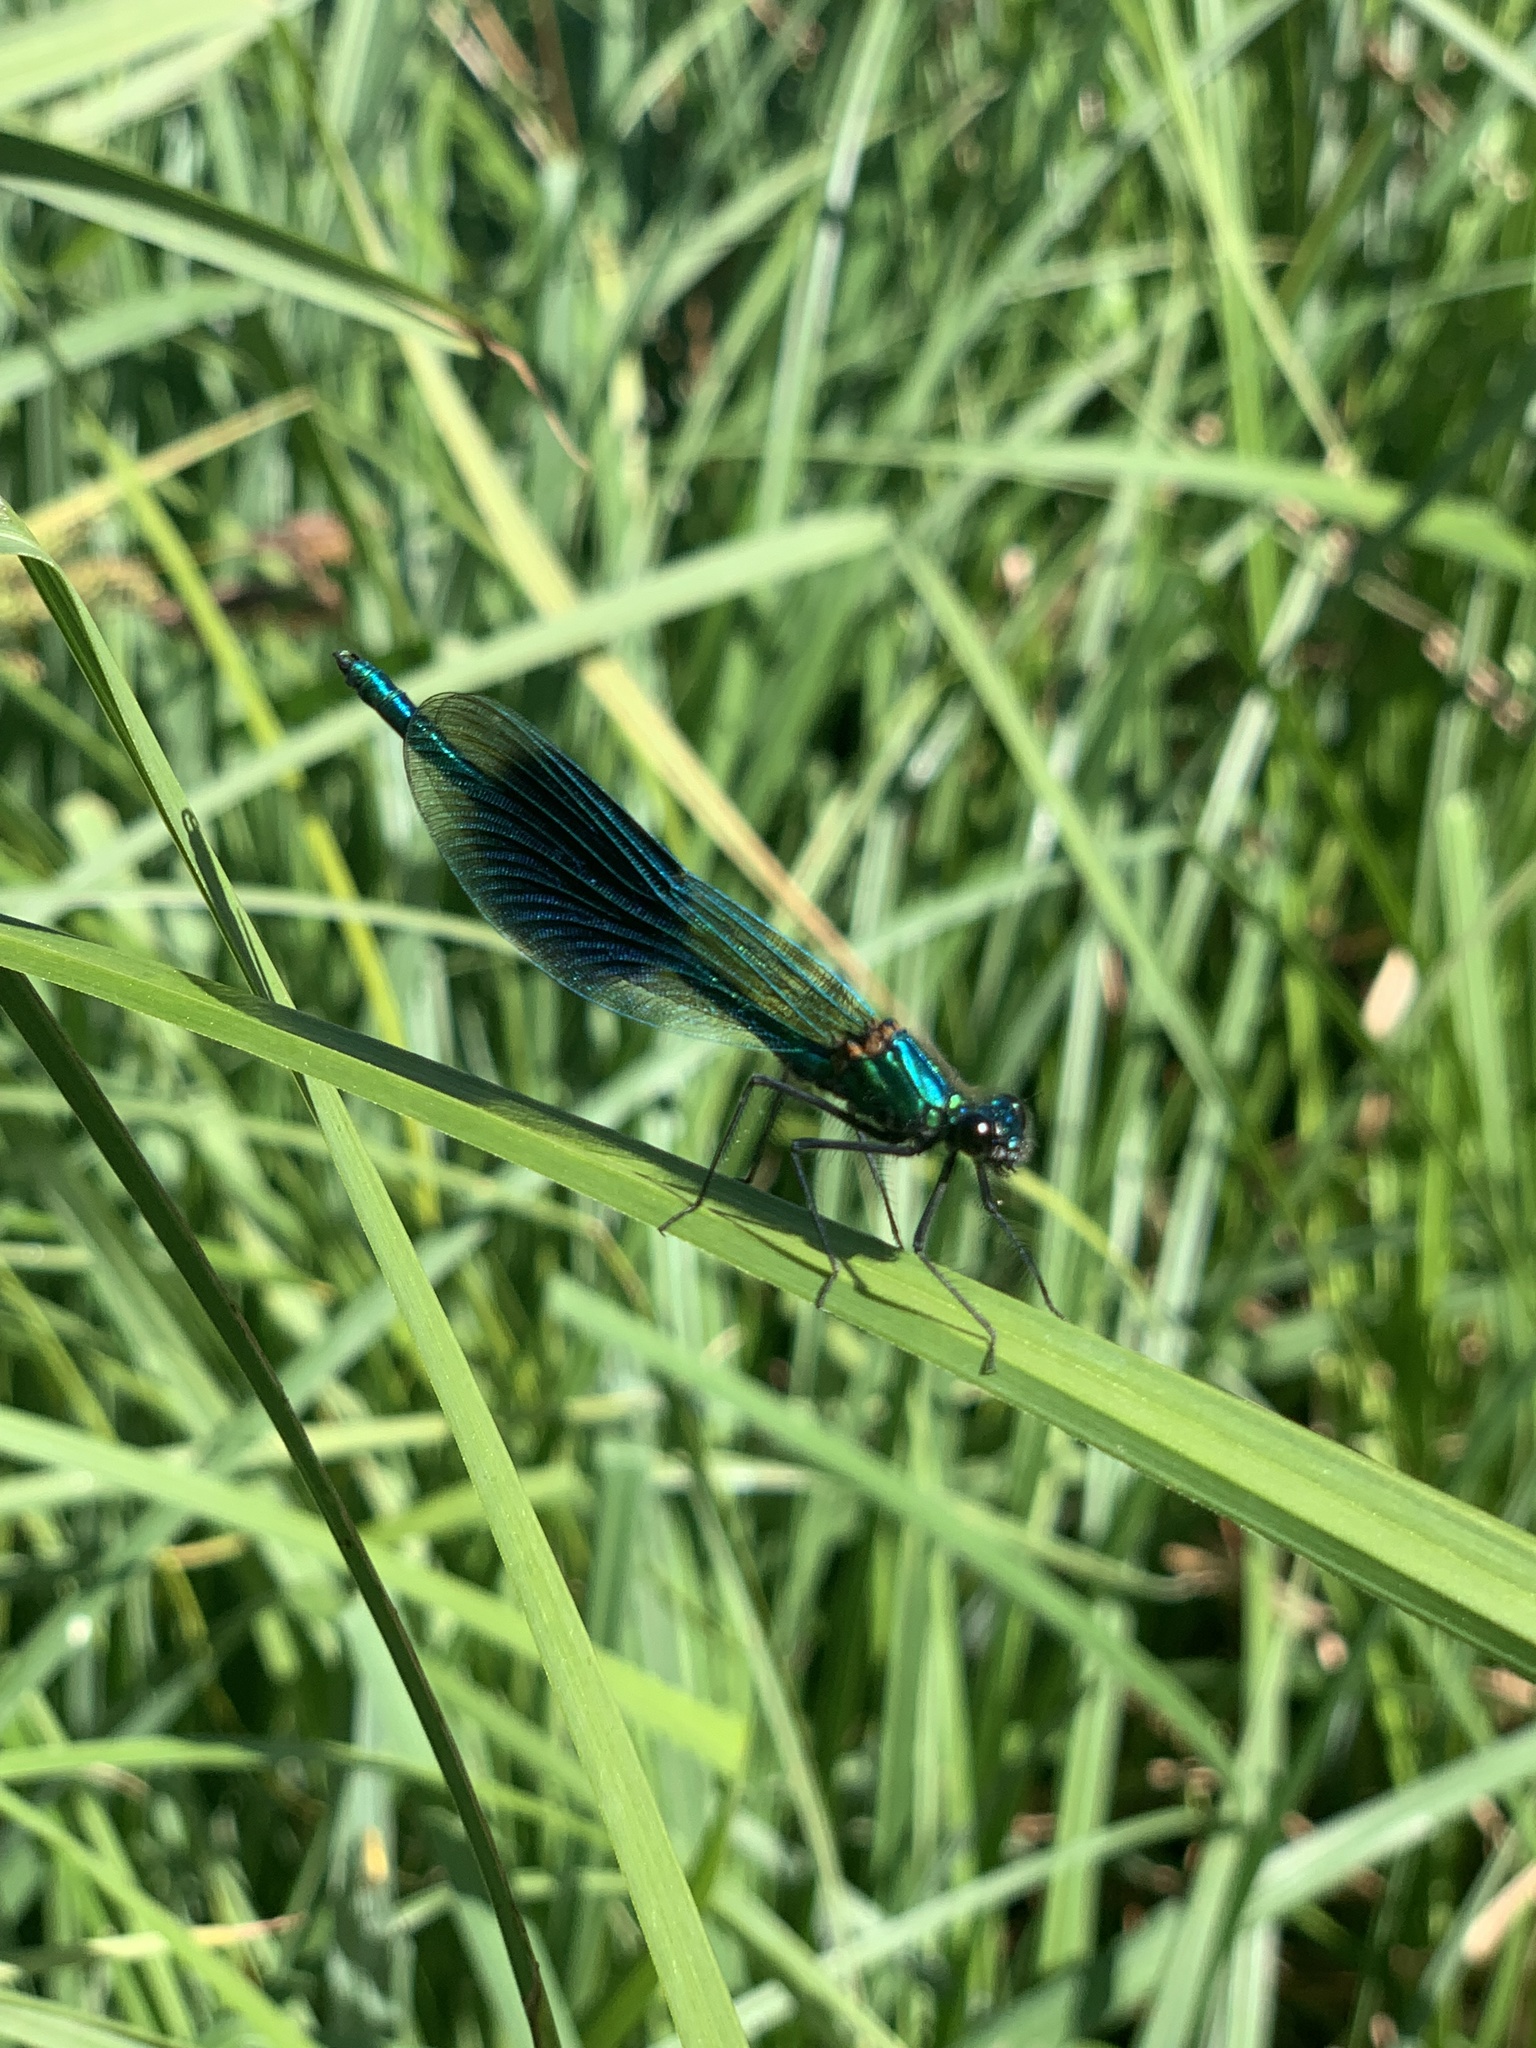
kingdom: Animalia
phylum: Arthropoda
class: Insecta
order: Odonata
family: Calopterygidae
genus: Calopteryx
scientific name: Calopteryx splendens
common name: Banded demoiselle
